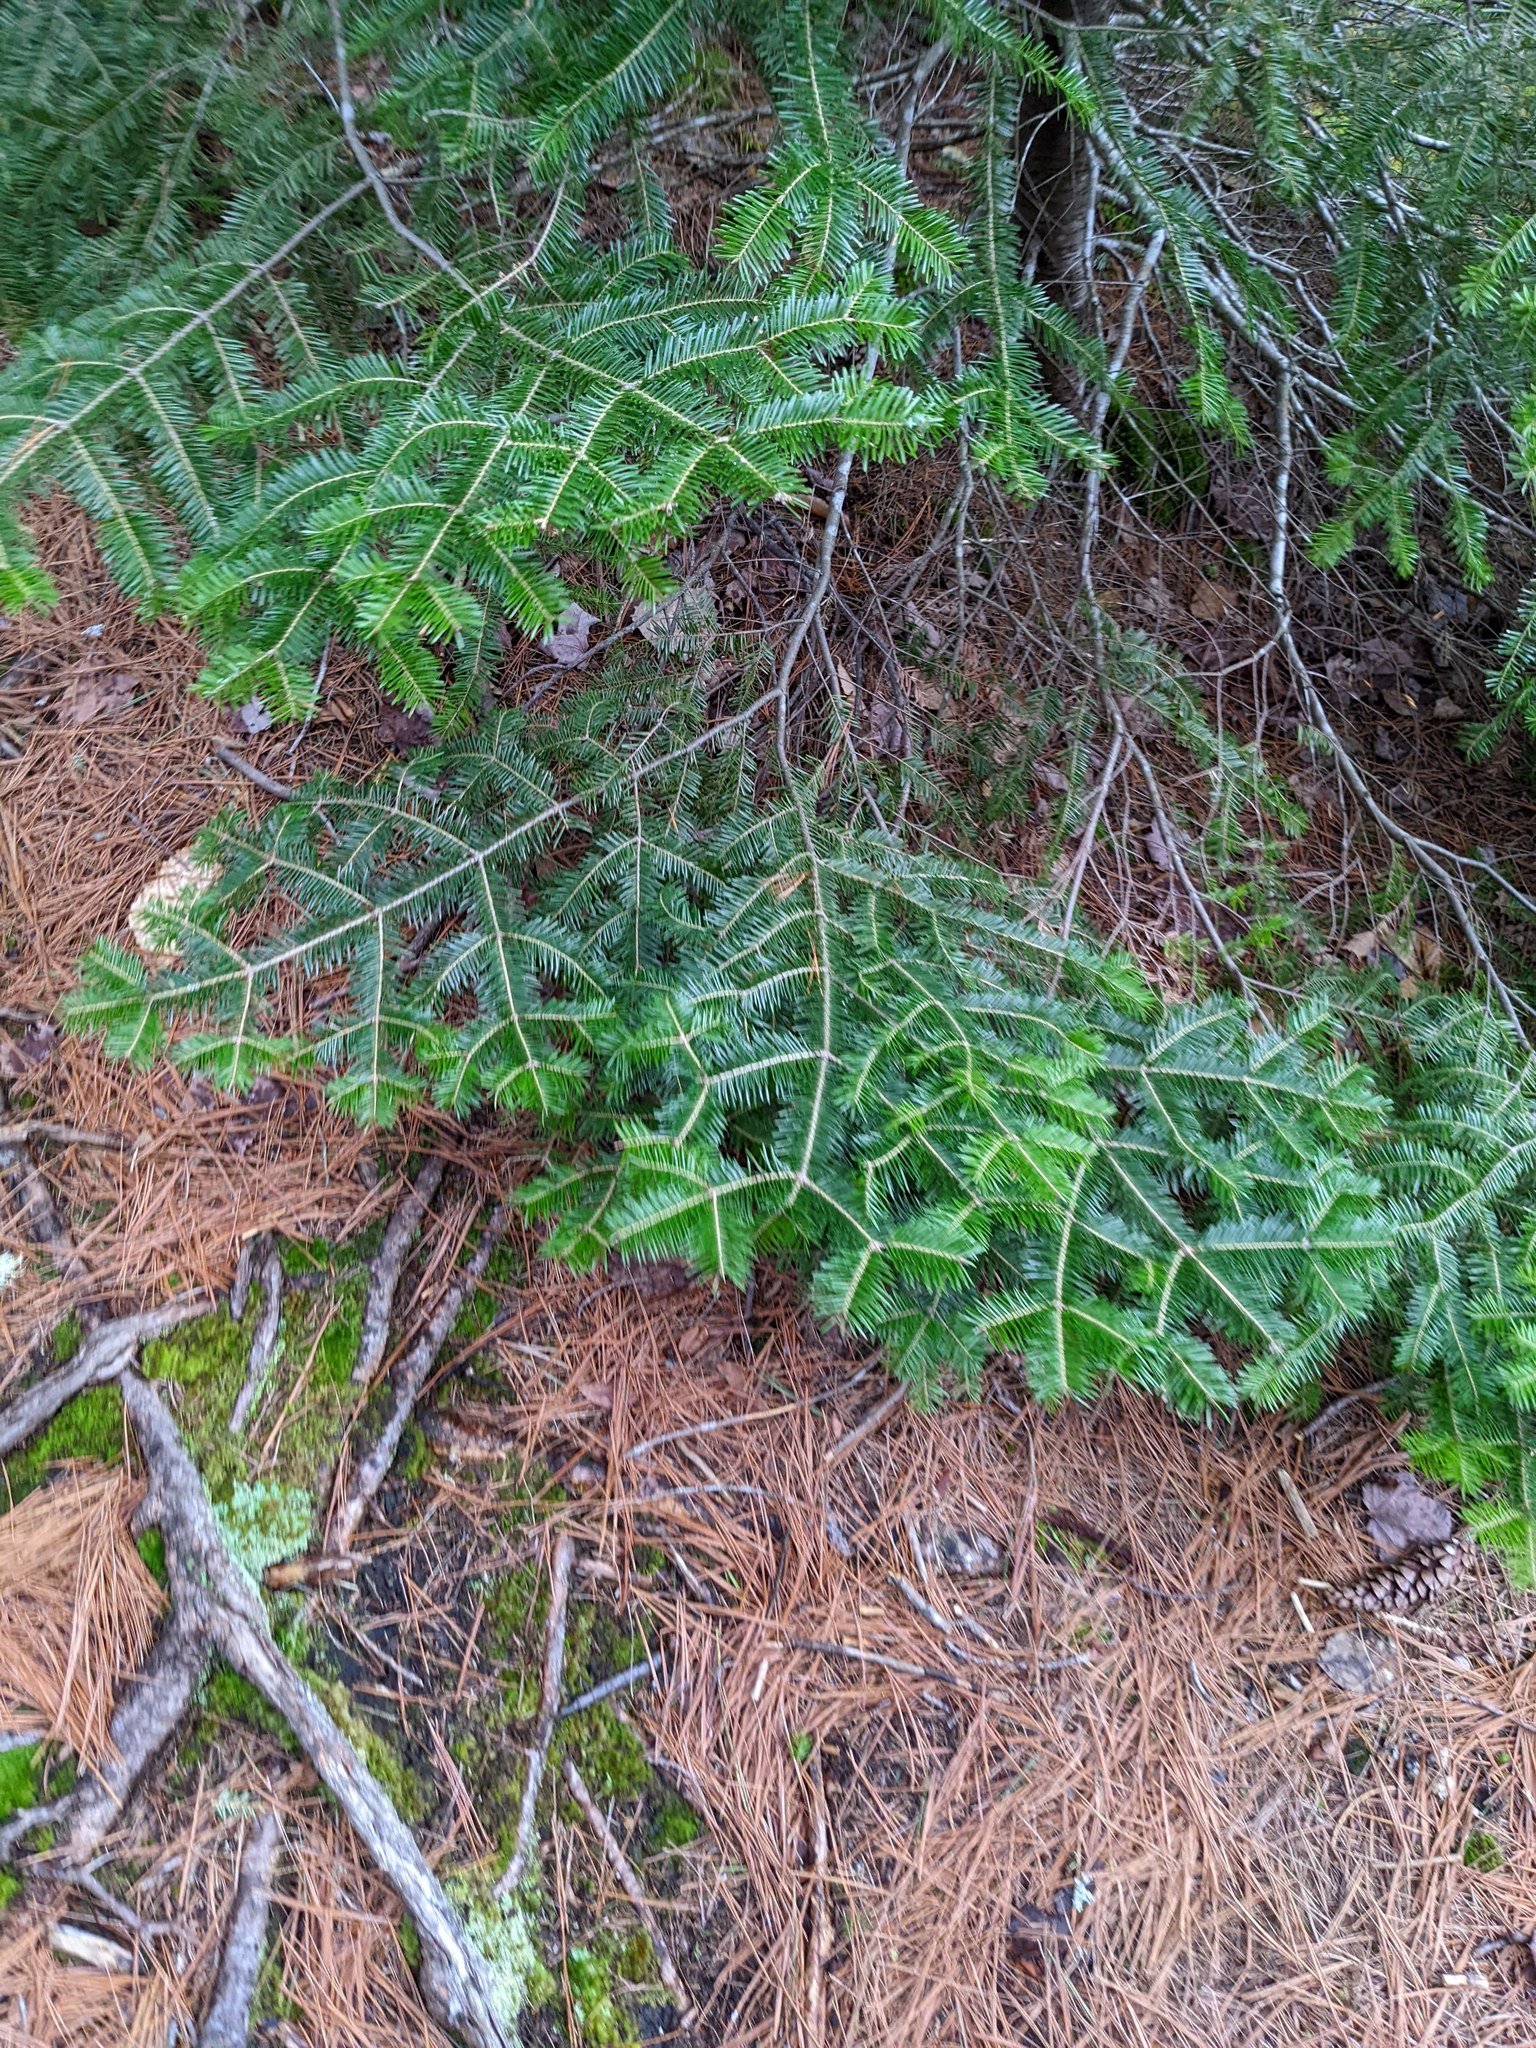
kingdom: Plantae
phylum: Tracheophyta
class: Pinopsida
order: Pinales
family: Pinaceae
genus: Abies
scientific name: Abies balsamea
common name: Balsam fir
